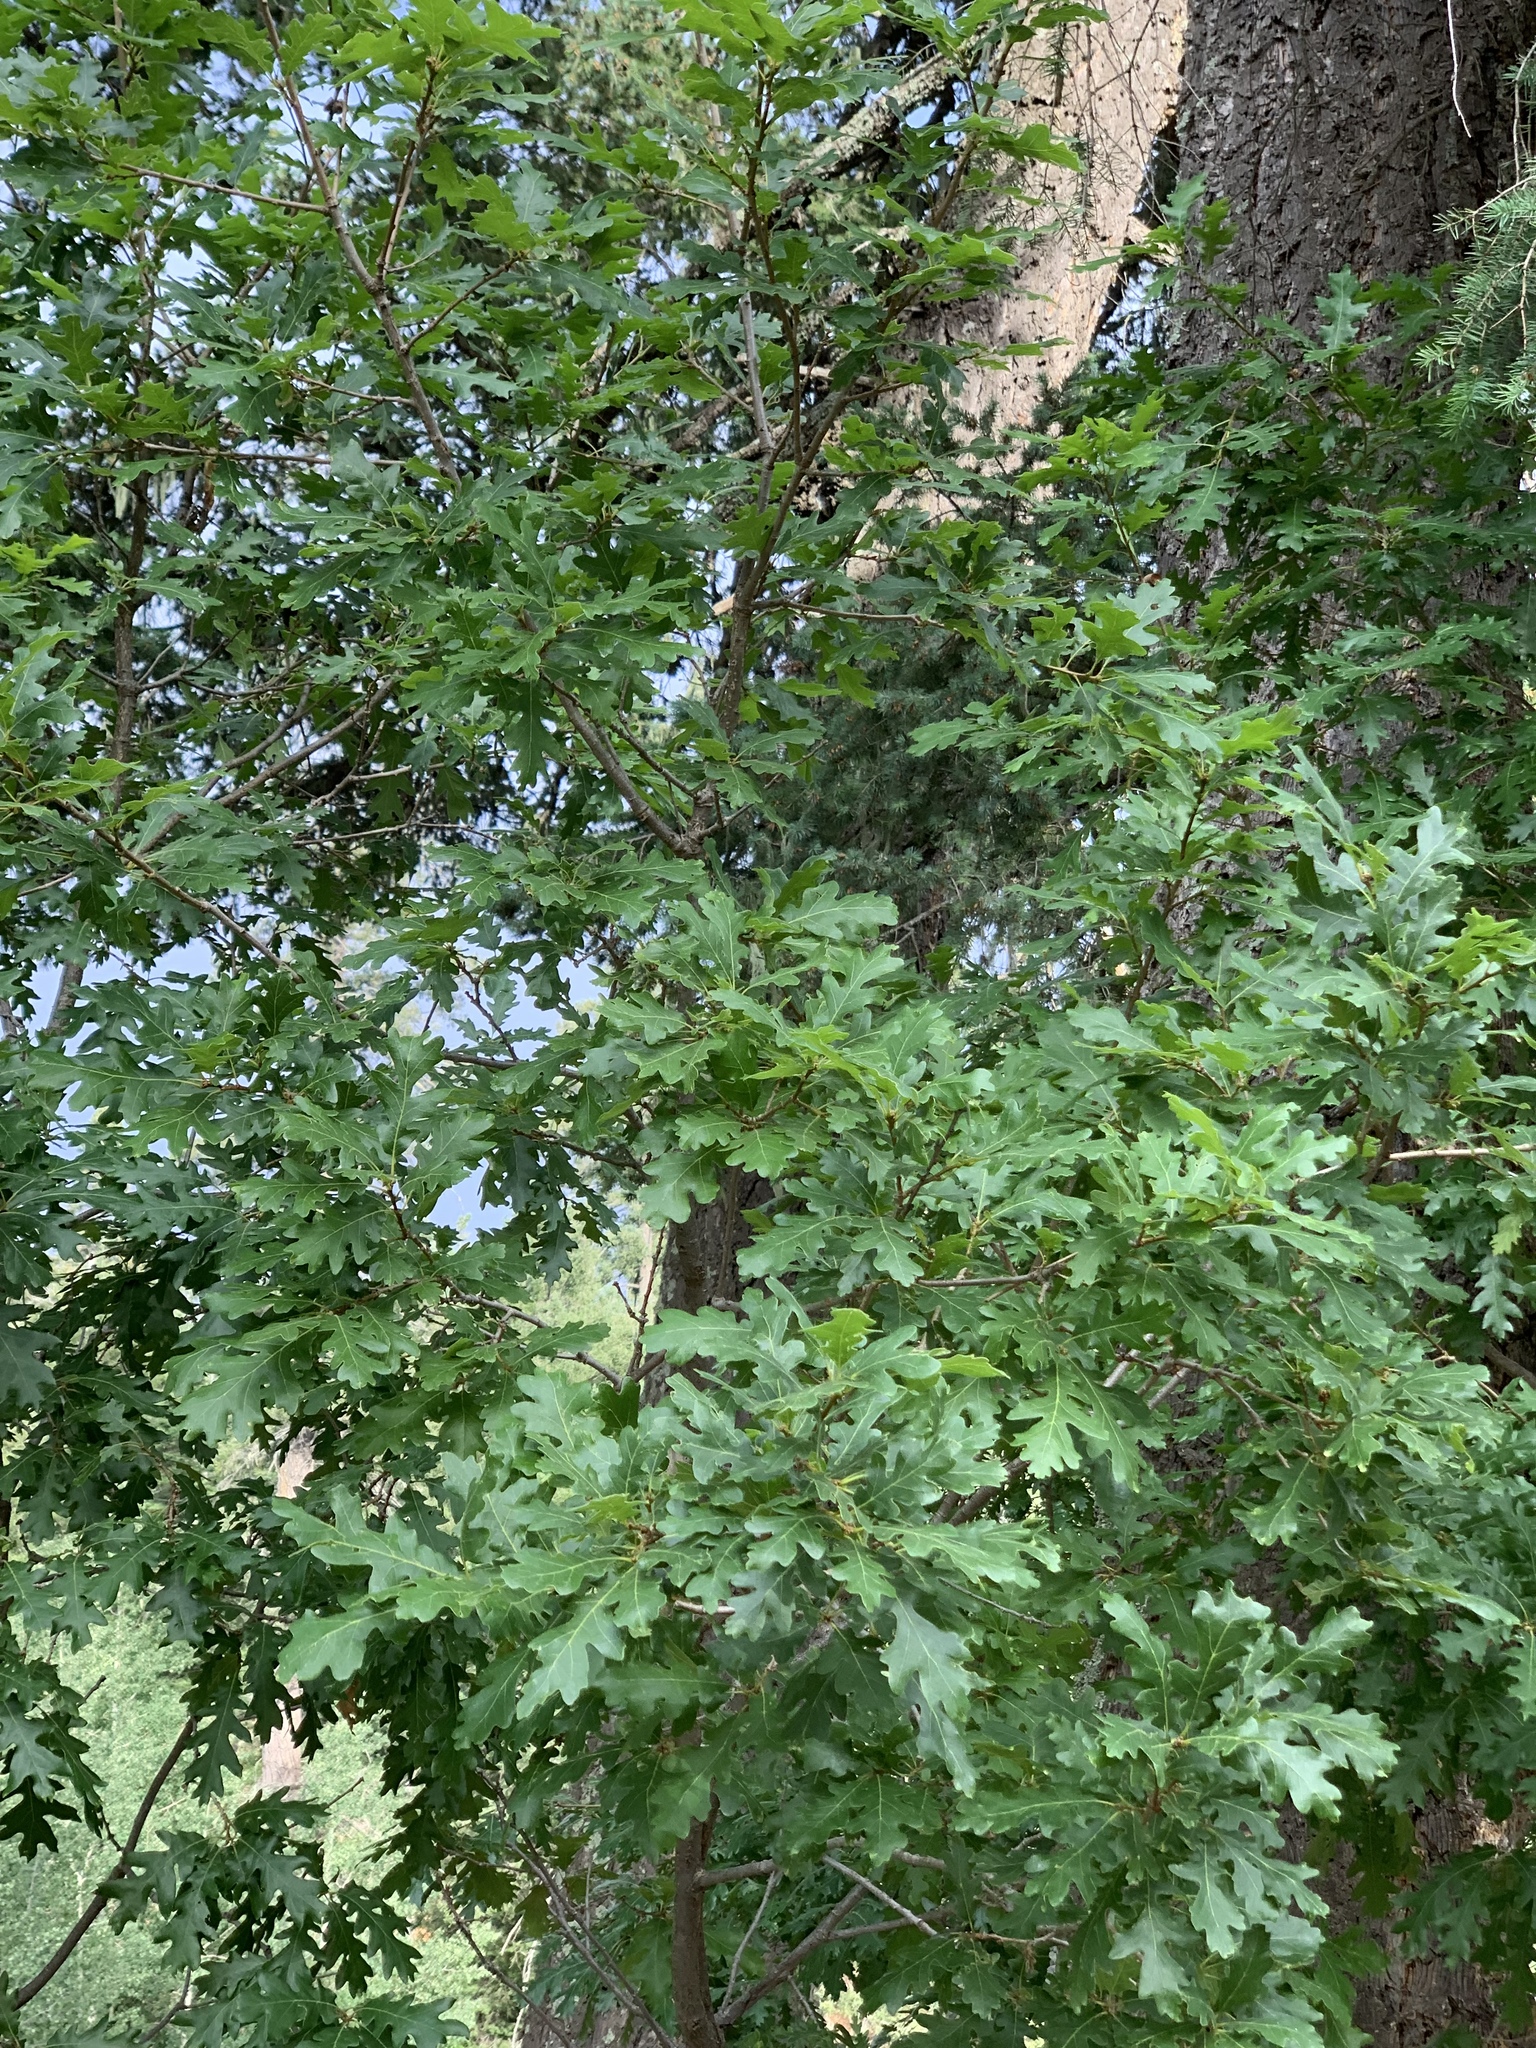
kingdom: Plantae
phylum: Tracheophyta
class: Magnoliopsida
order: Fagales
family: Fagaceae
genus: Quercus
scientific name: Quercus gambelii
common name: Gambel oak
